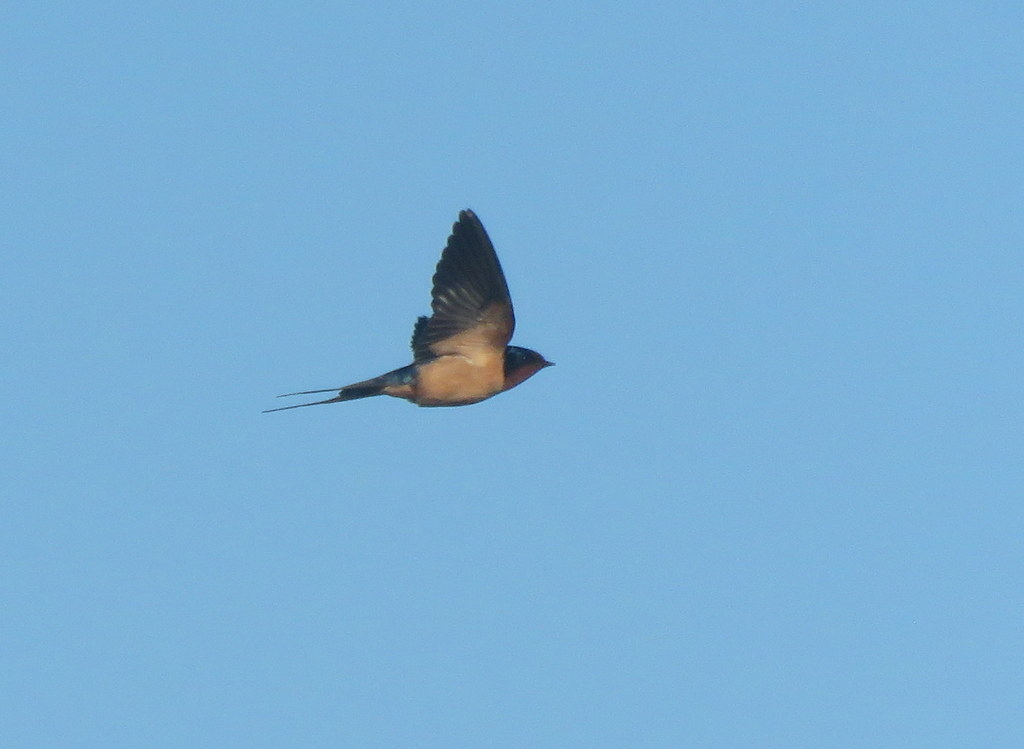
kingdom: Animalia
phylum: Chordata
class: Aves
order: Passeriformes
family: Hirundinidae
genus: Hirundo
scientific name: Hirundo rustica
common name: Barn swallow
